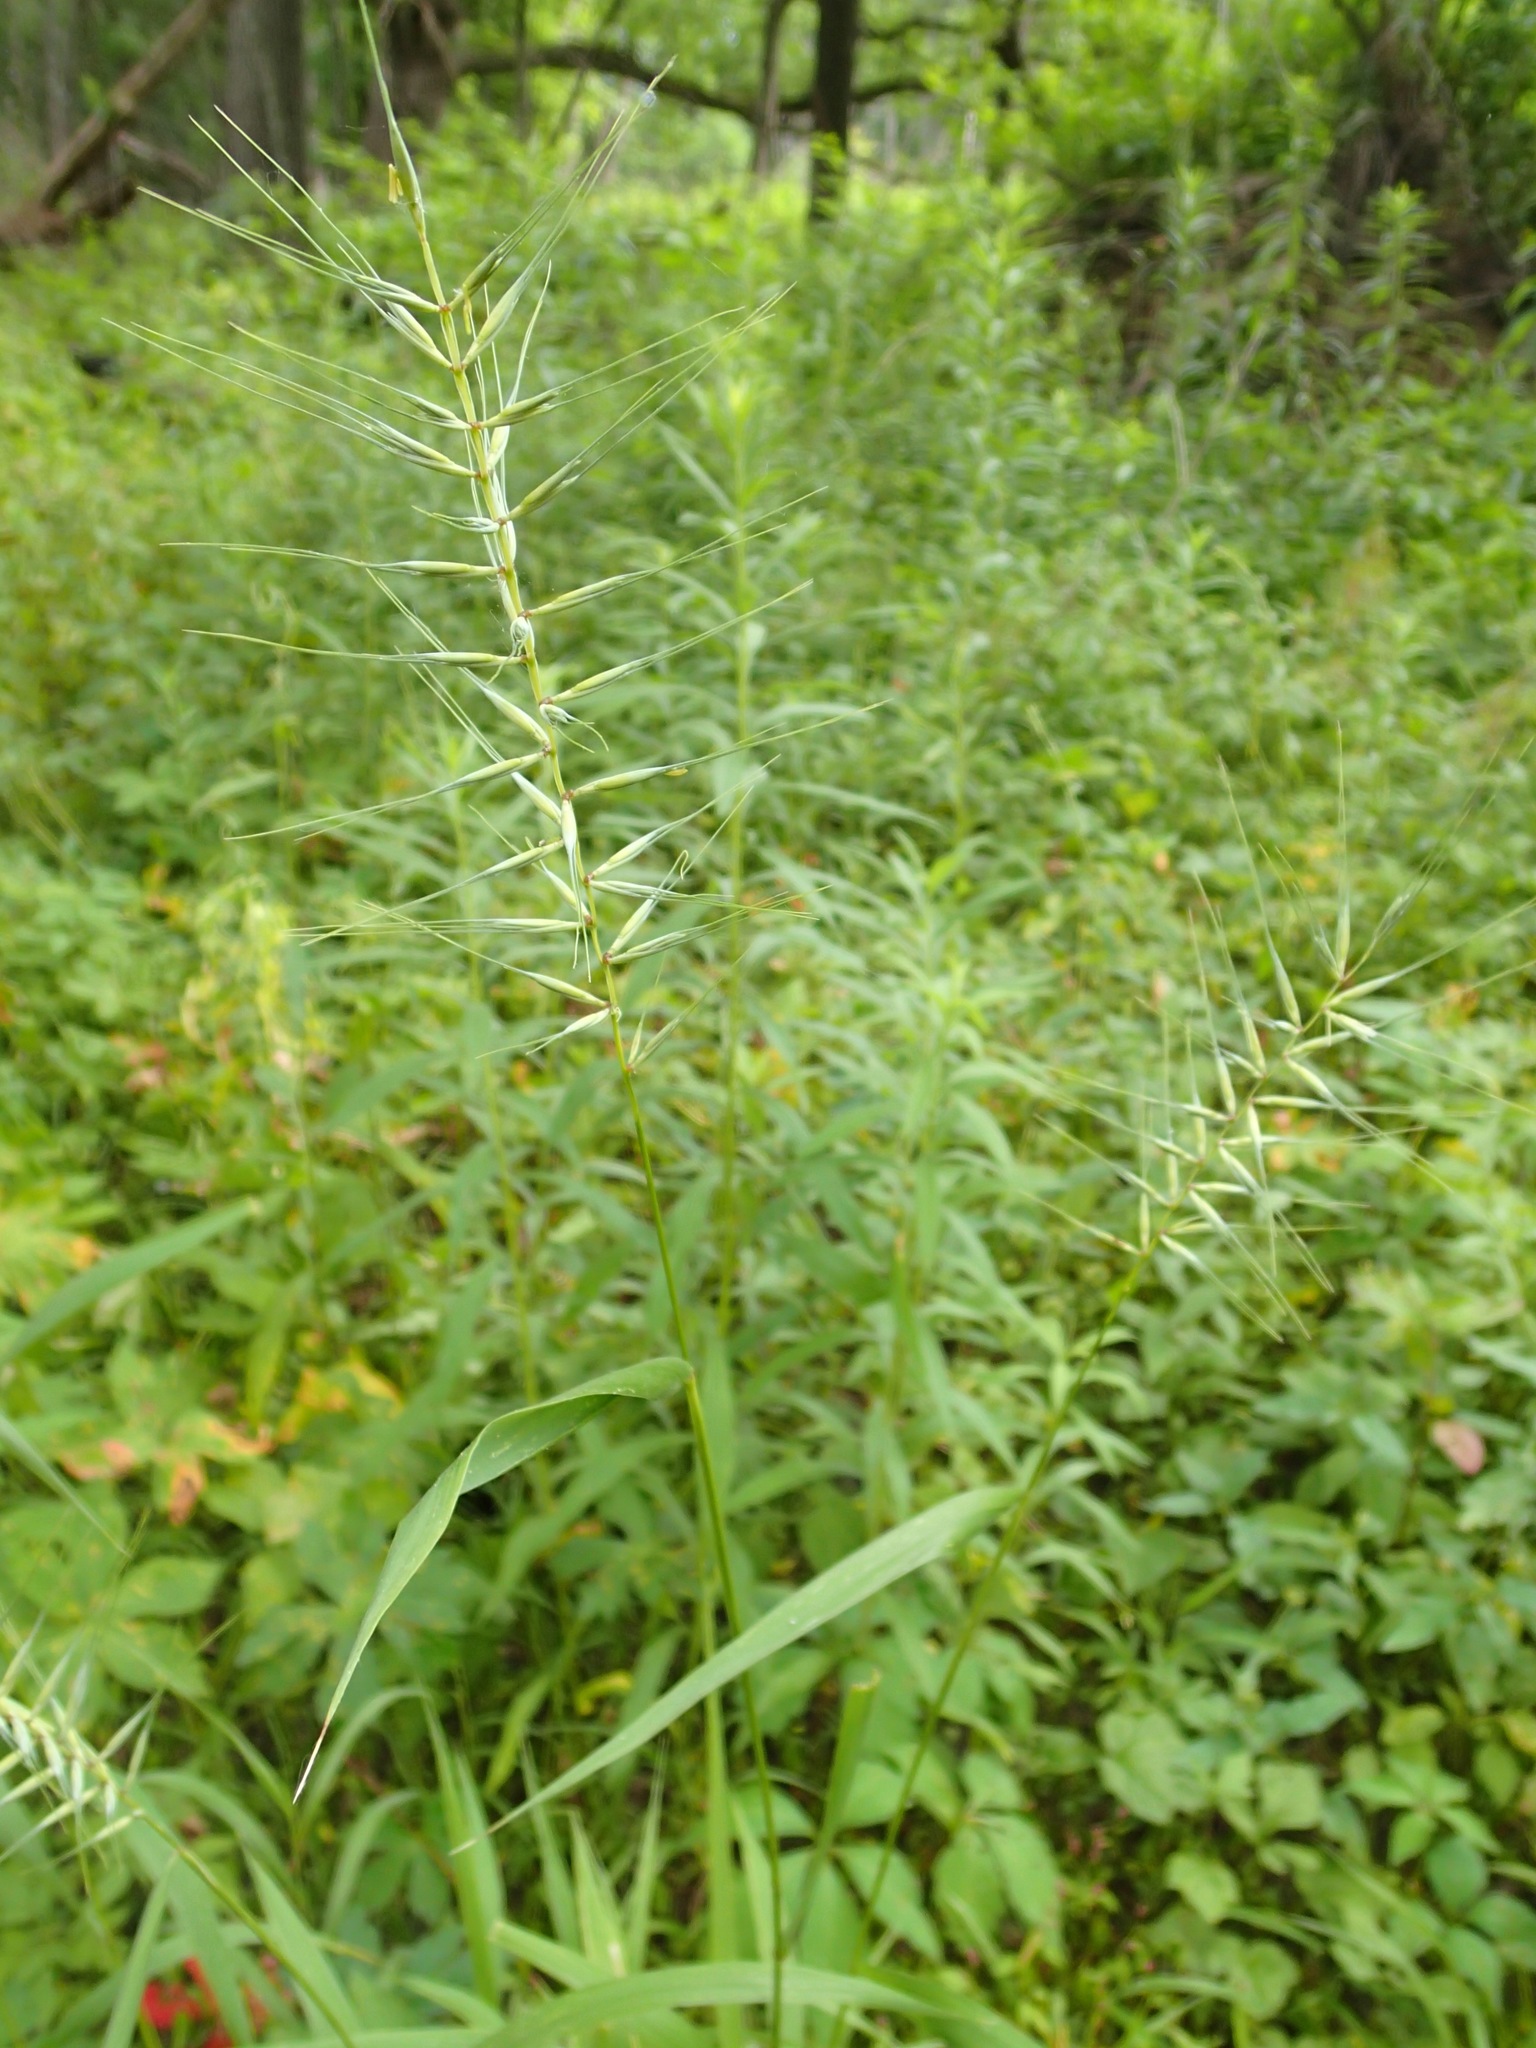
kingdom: Plantae
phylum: Tracheophyta
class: Liliopsida
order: Poales
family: Poaceae
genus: Elymus
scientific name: Elymus hystrix
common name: Bottlebrush grass
